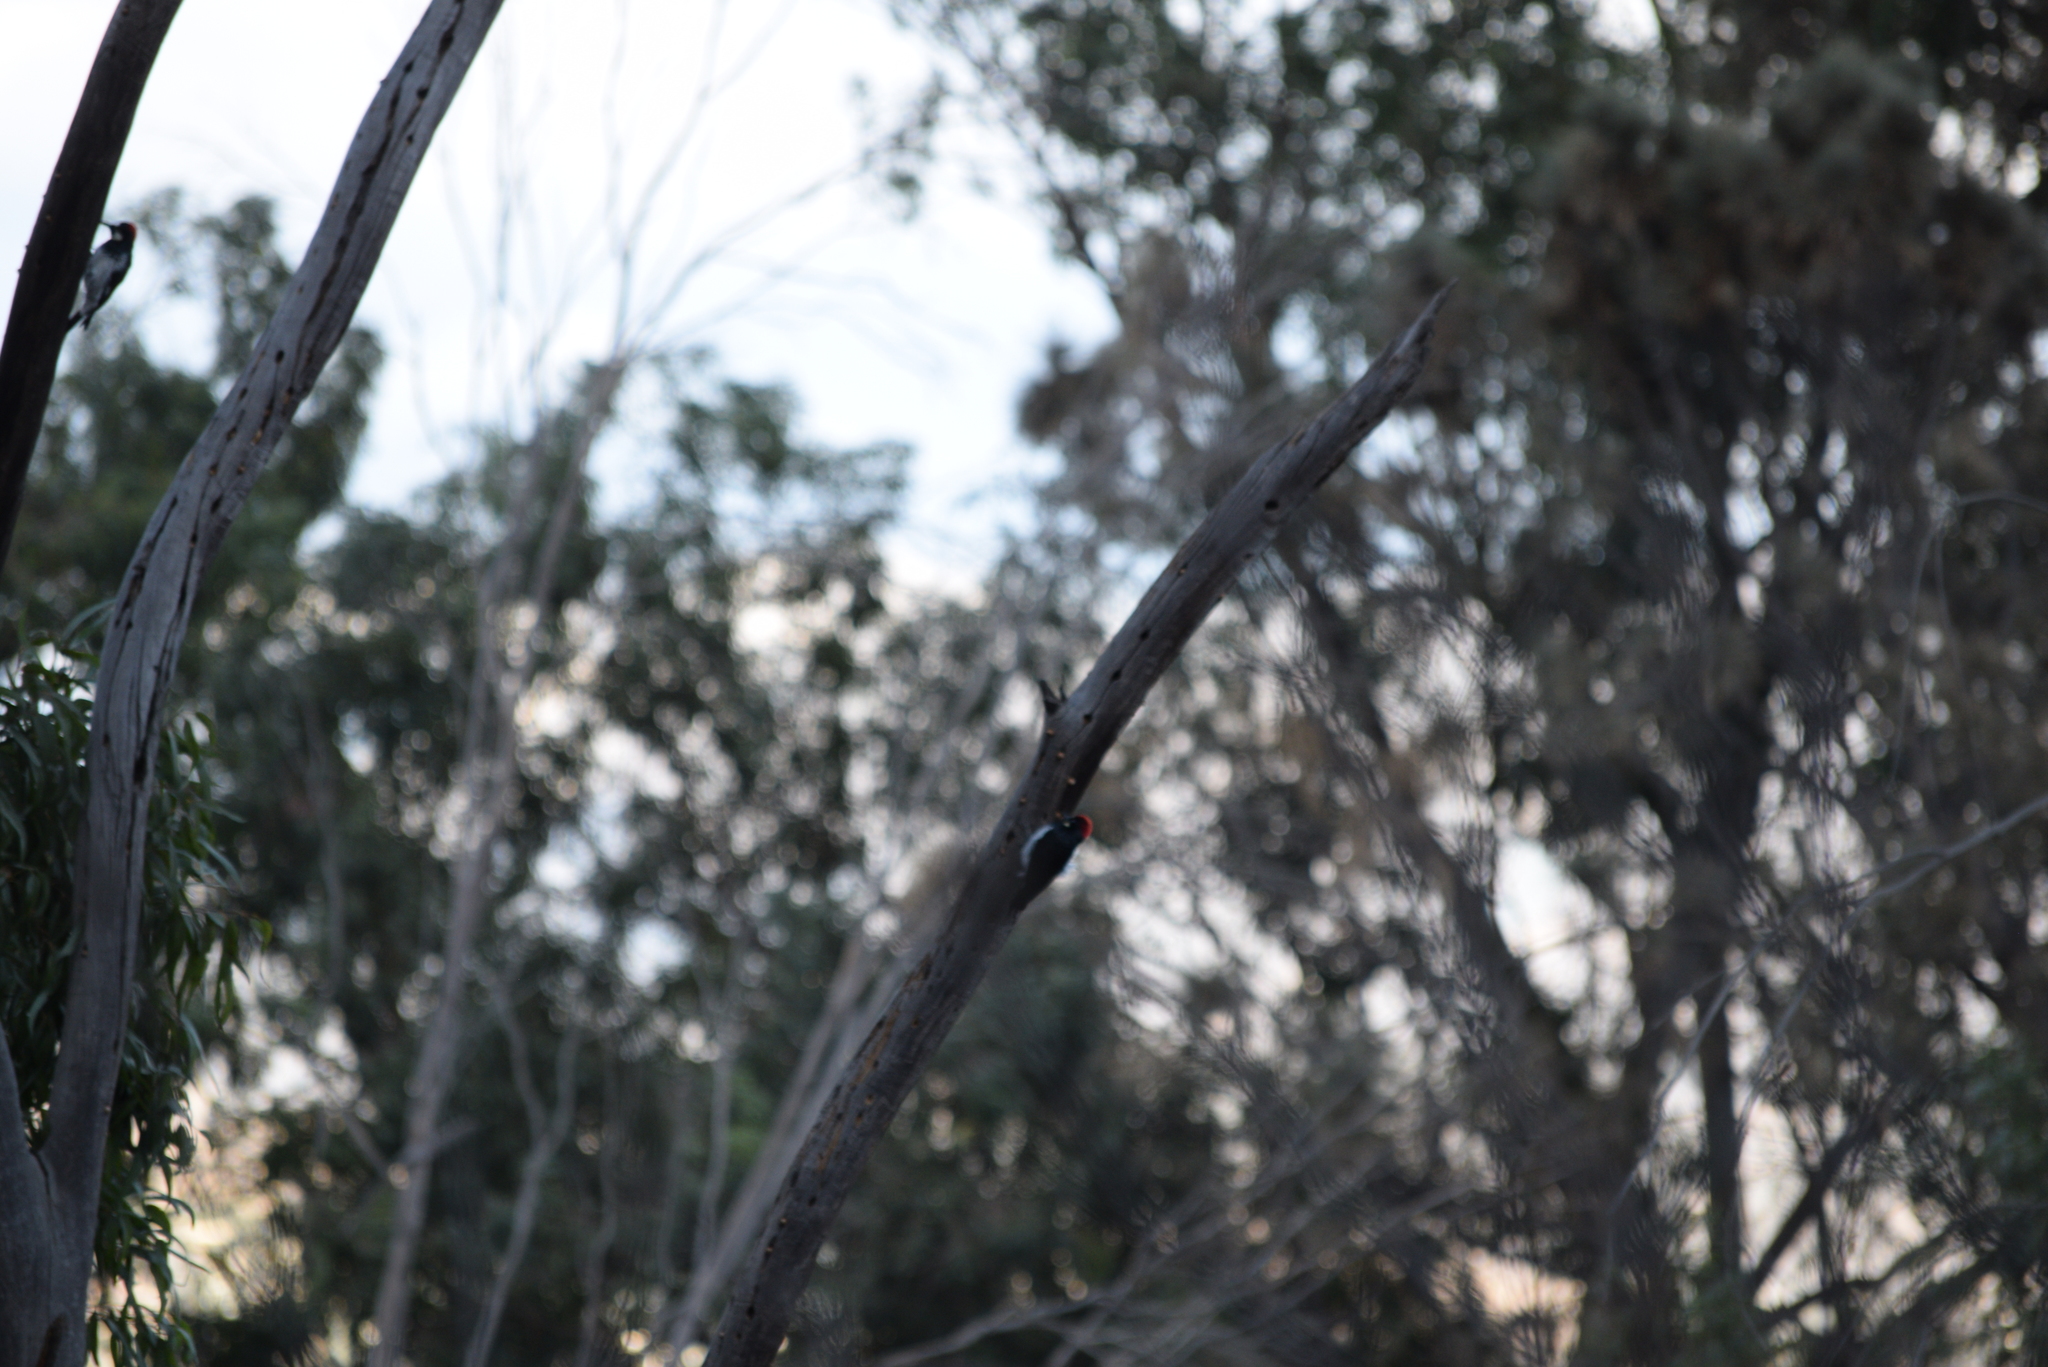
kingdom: Animalia
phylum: Chordata
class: Aves
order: Piciformes
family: Picidae
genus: Melanerpes
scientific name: Melanerpes formicivorus
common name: Acorn woodpecker
